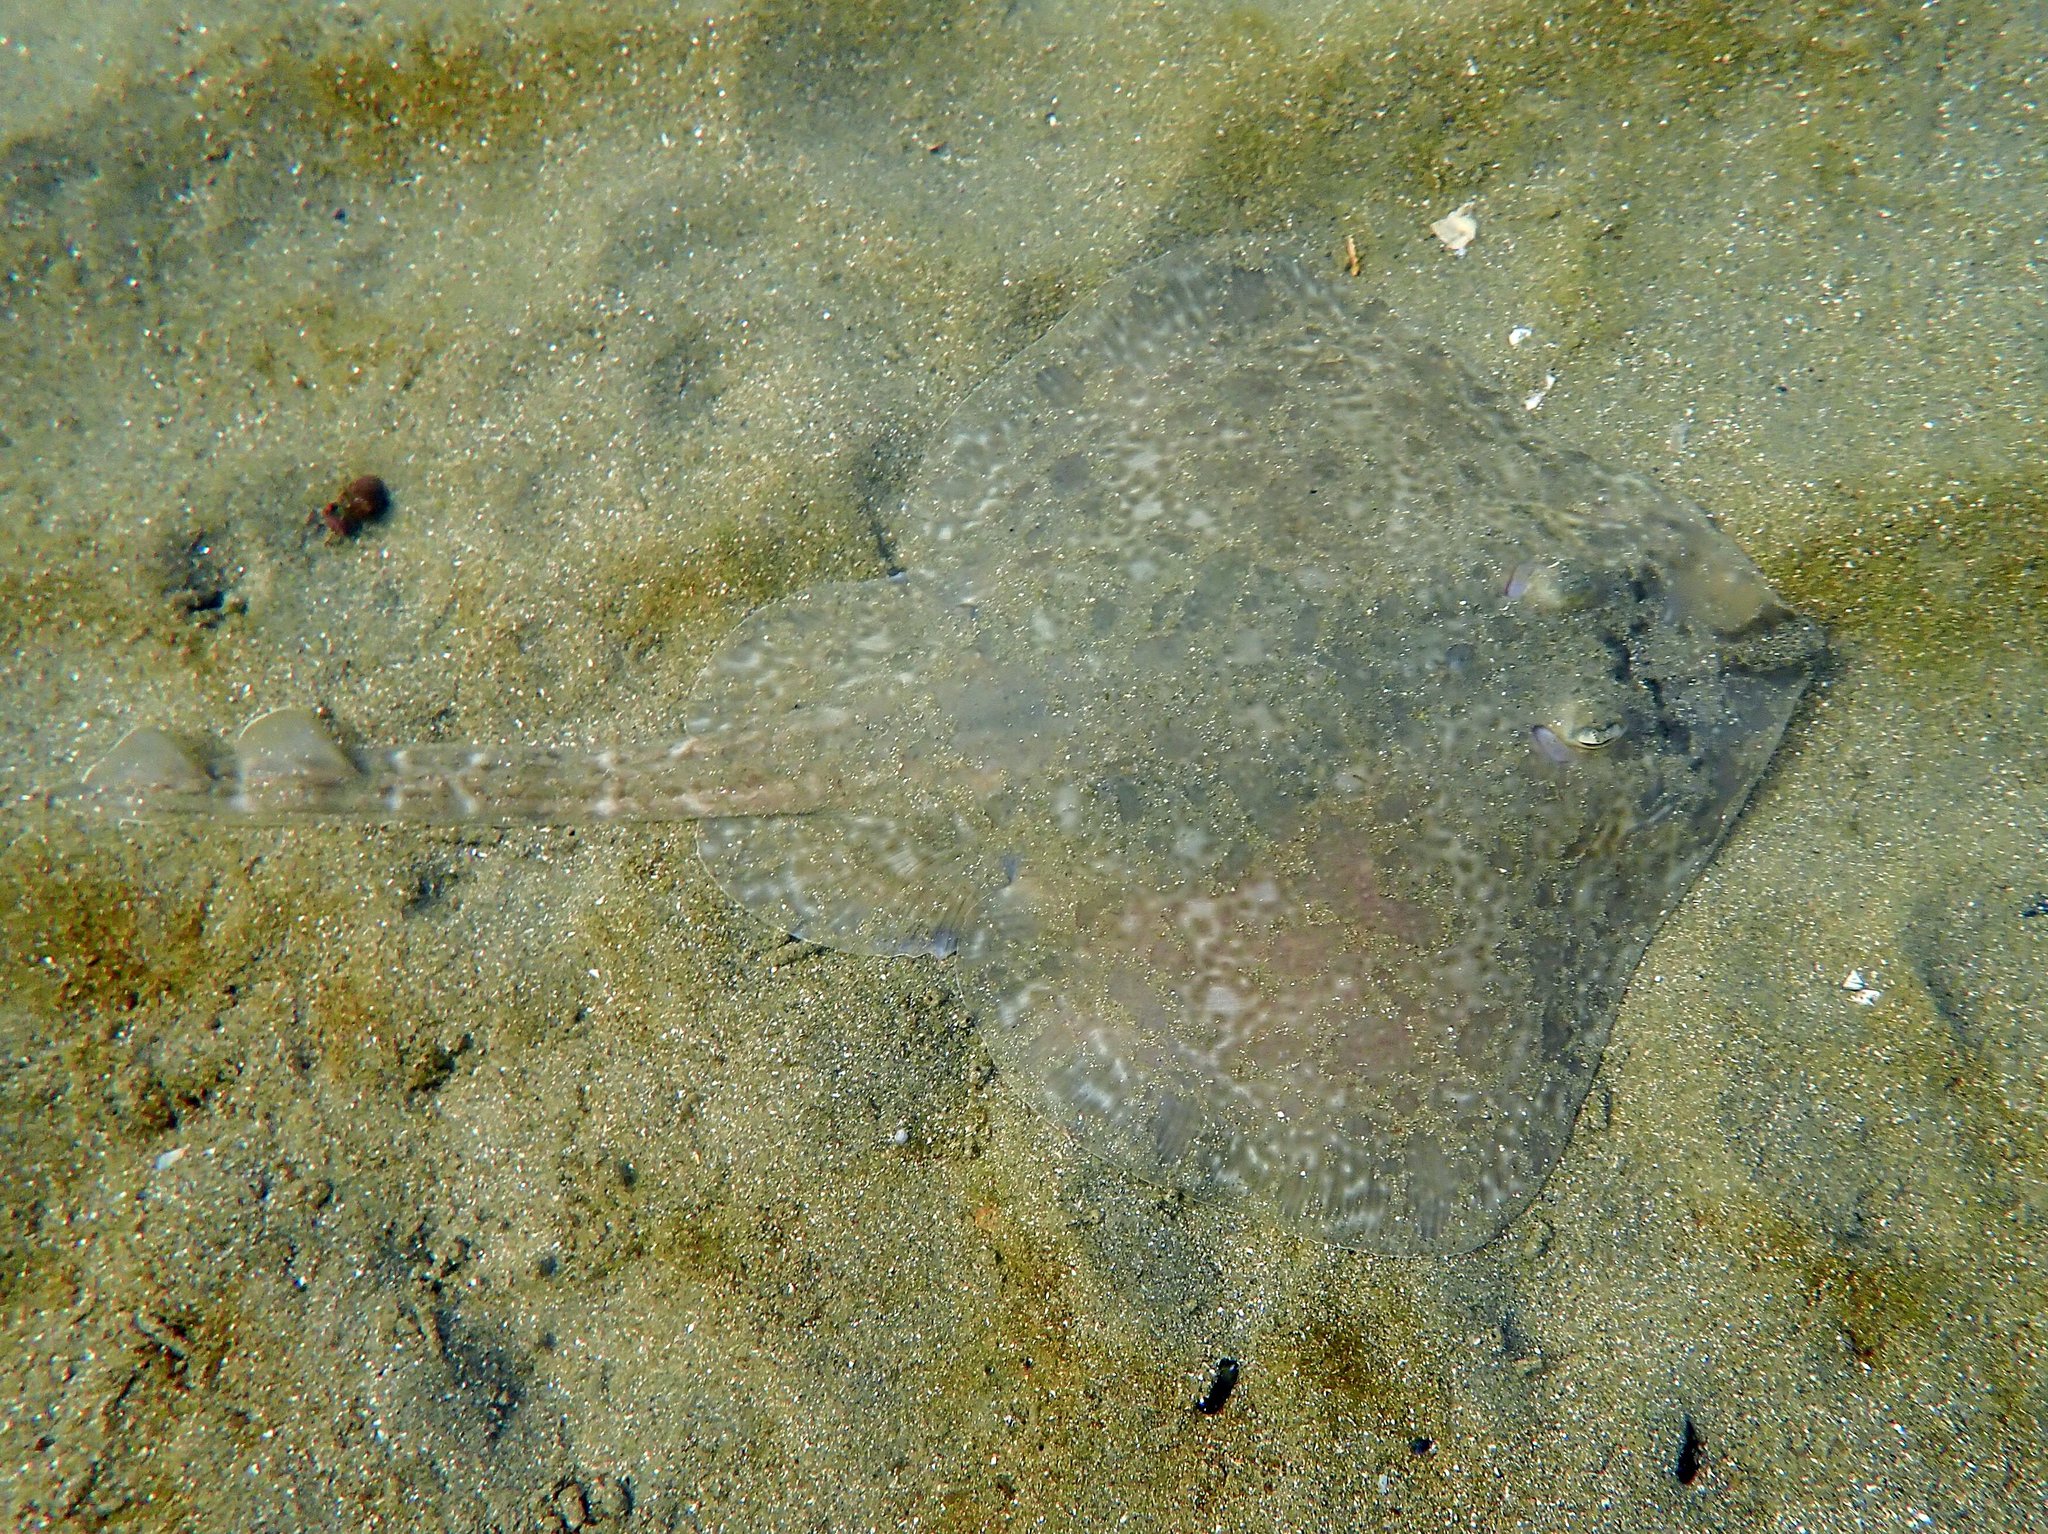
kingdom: Animalia
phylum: Chordata
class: Elasmobranchii
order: Rajiformes
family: Rajidae
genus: Dentiraja
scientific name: Dentiraja lemprieri
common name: Thornback skate
